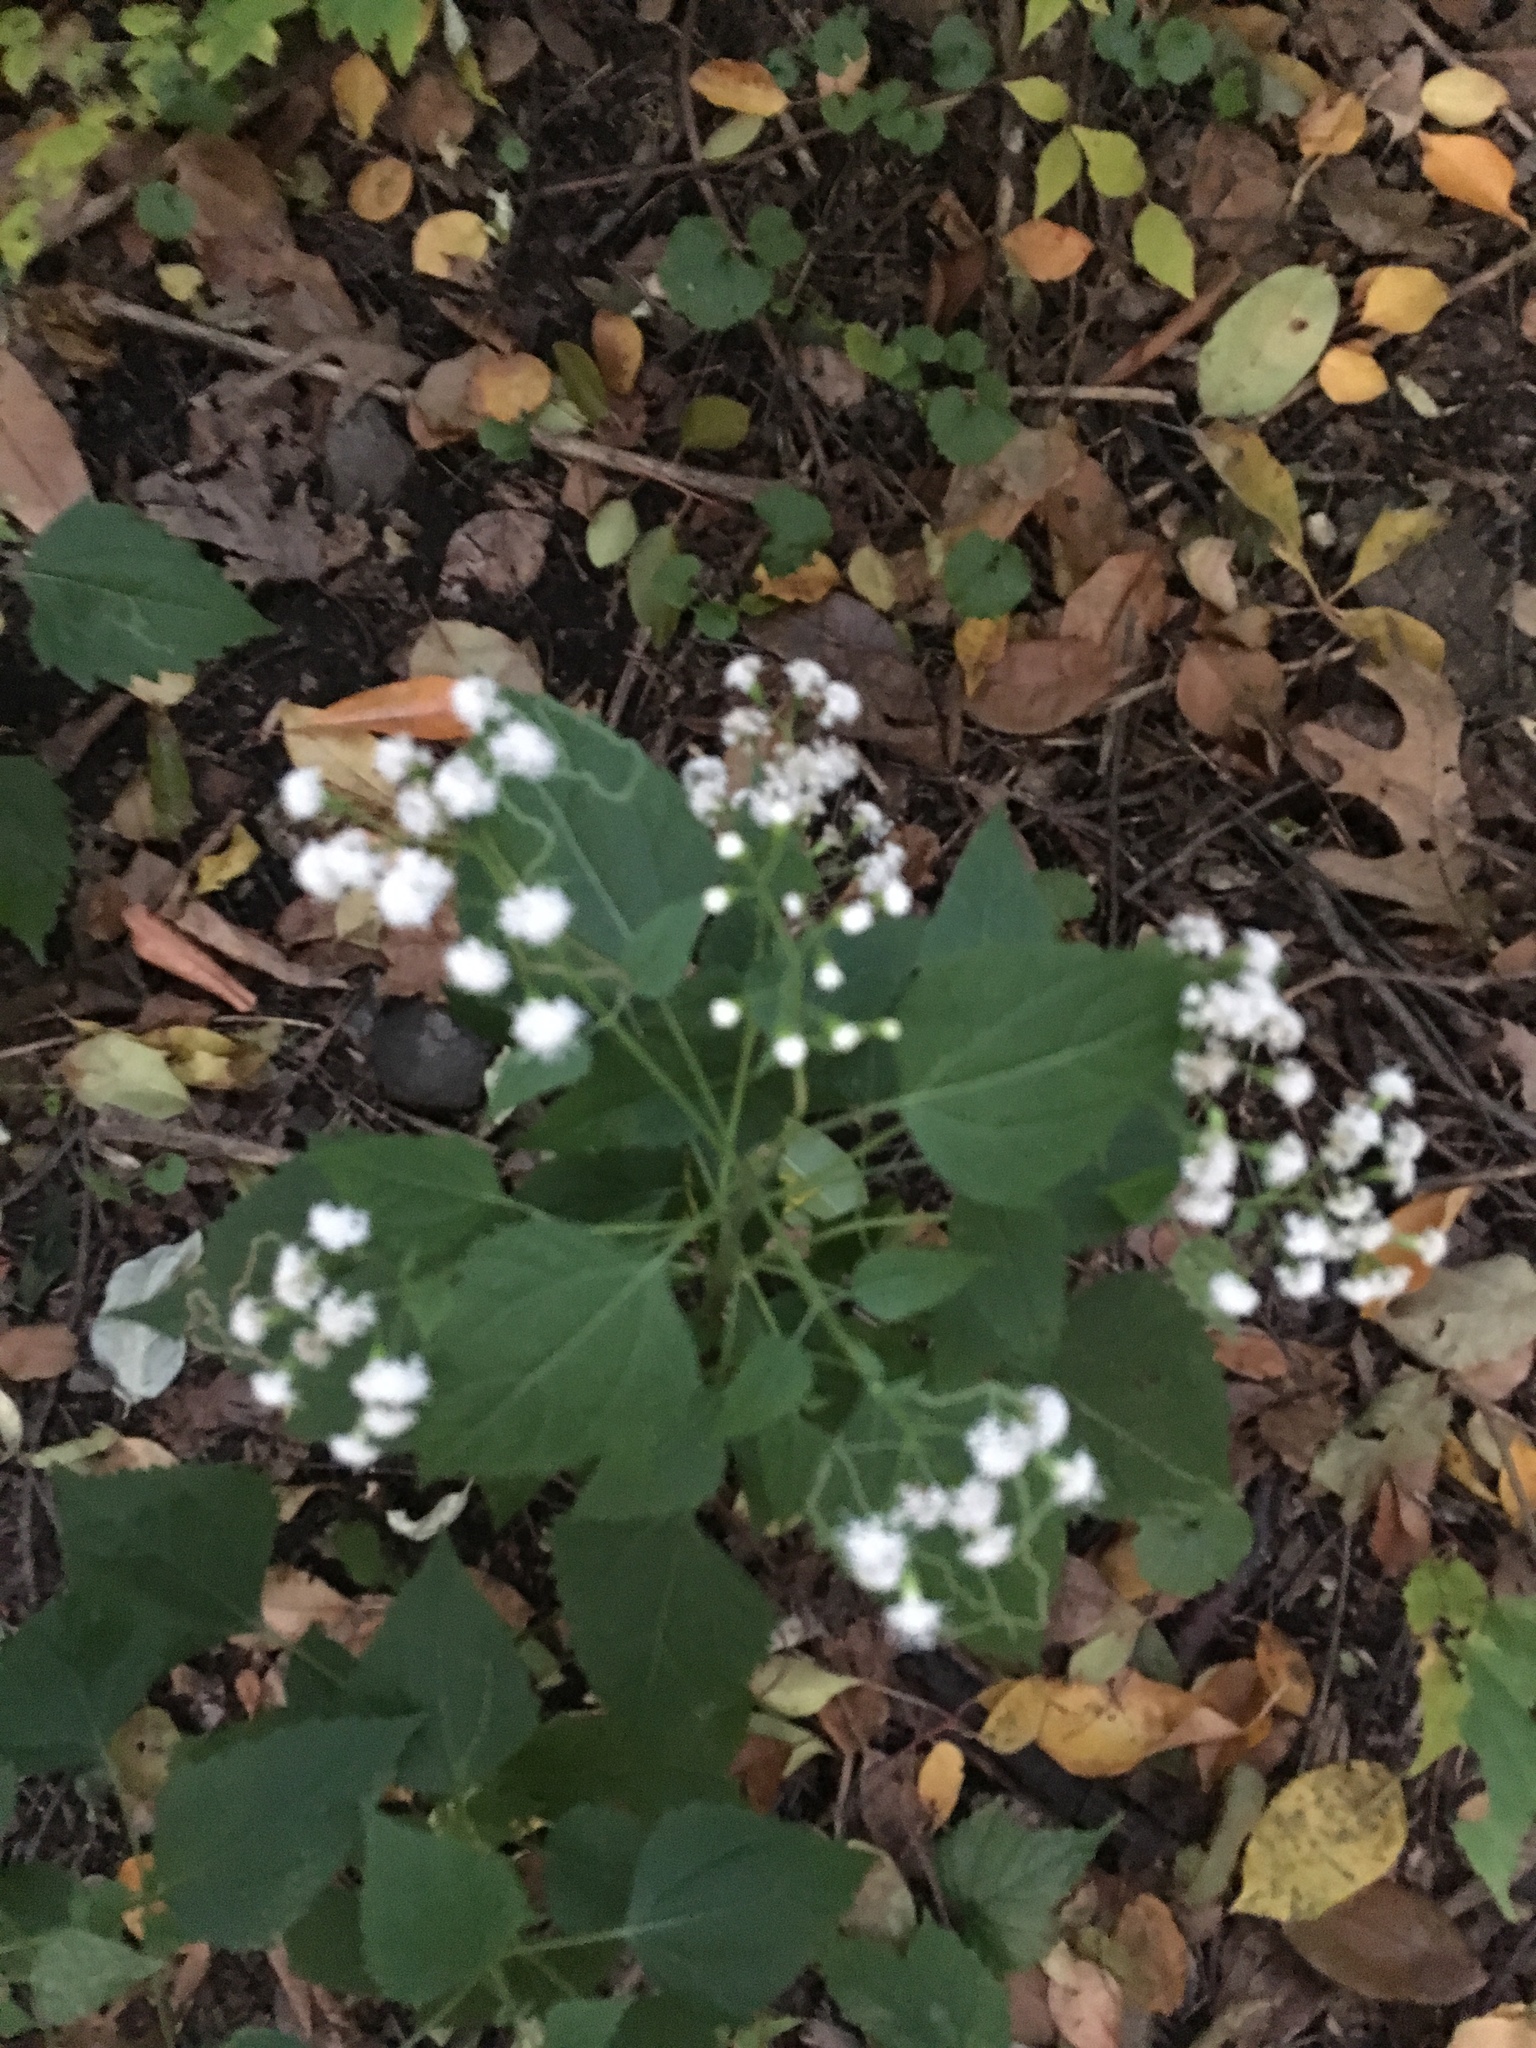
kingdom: Plantae
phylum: Tracheophyta
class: Magnoliopsida
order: Asterales
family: Asteraceae
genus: Ageratina
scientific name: Ageratina altissima
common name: White snakeroot
